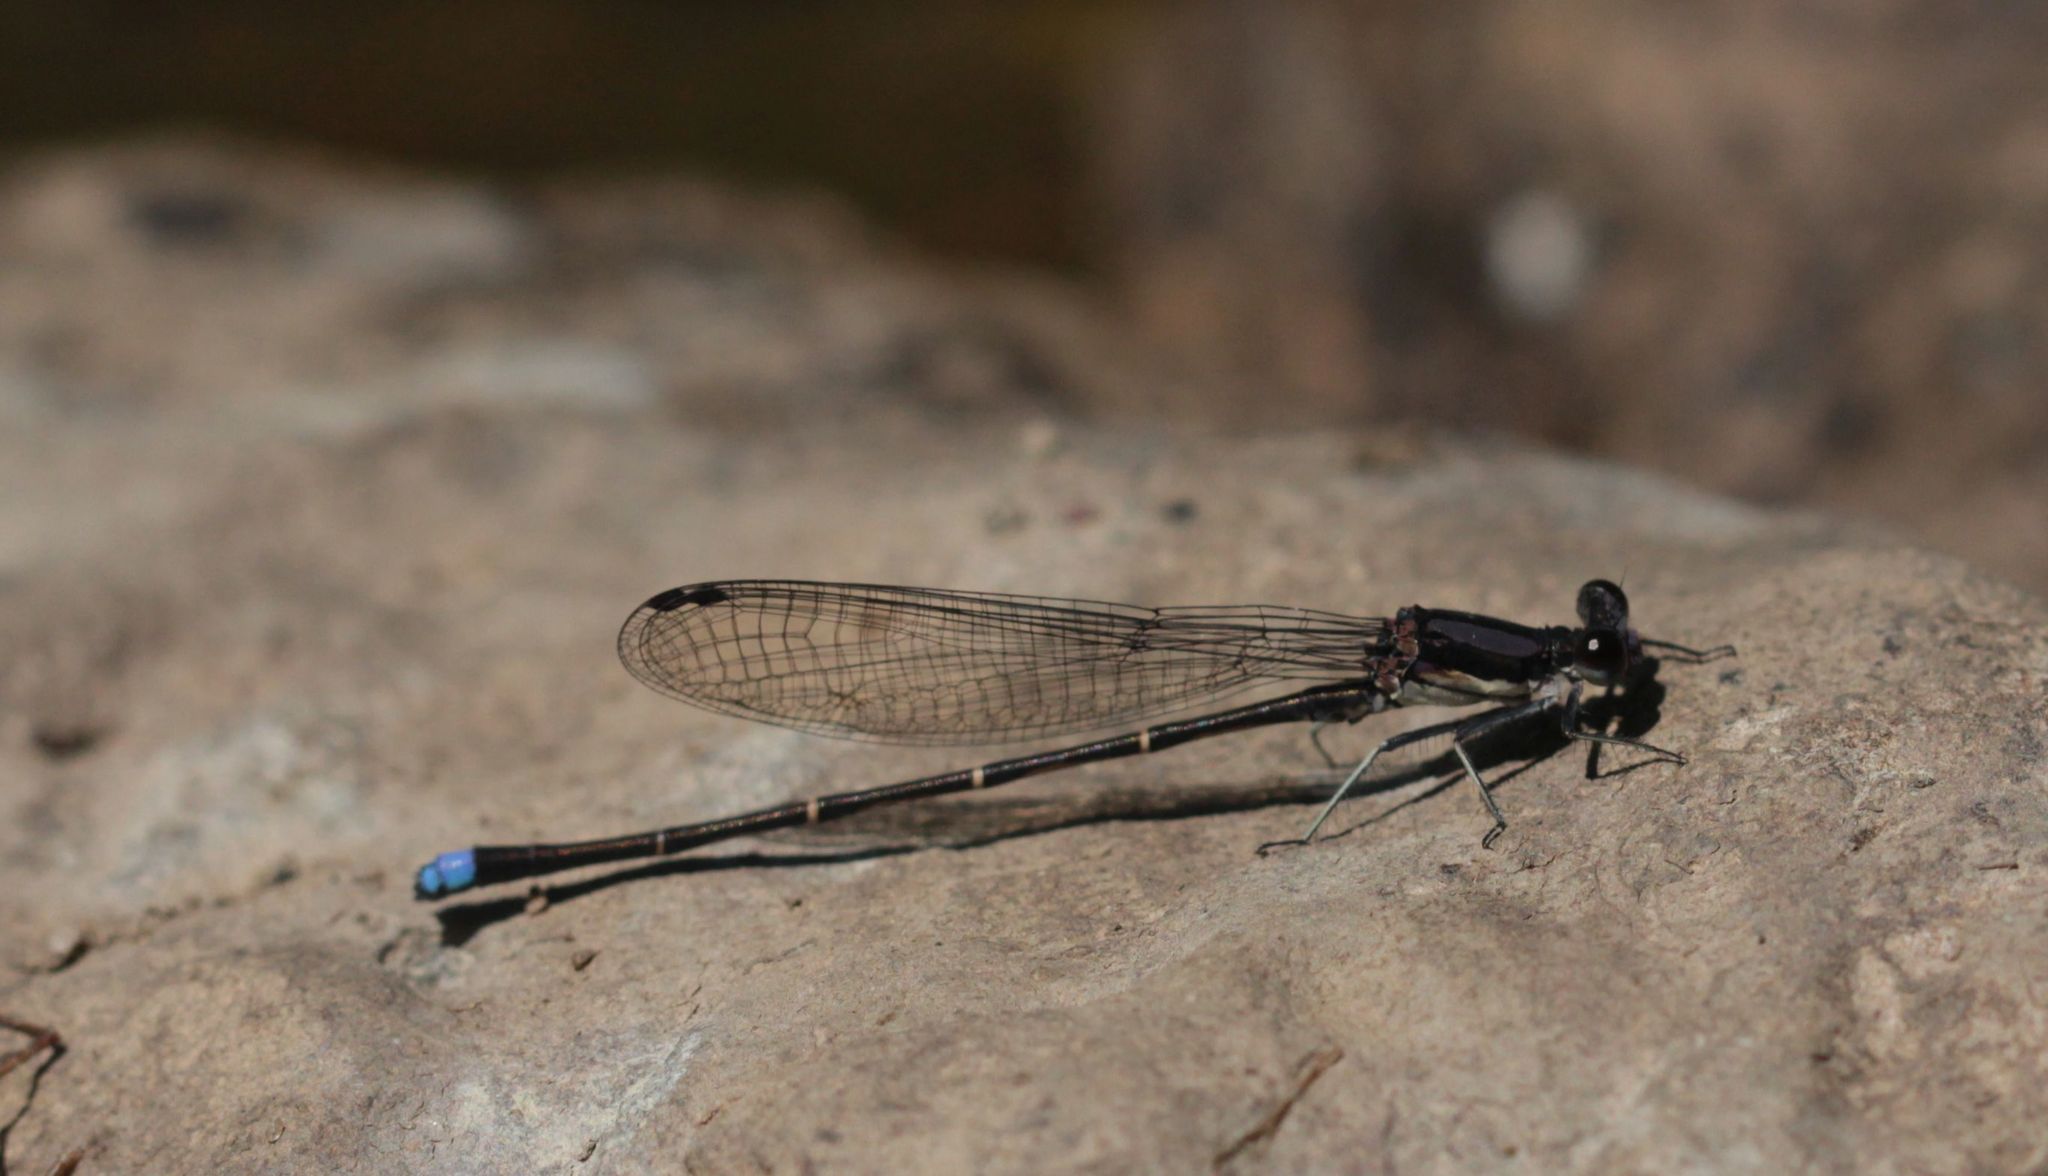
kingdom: Animalia
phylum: Arthropoda
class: Insecta
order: Odonata
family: Coenagrionidae
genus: Argia
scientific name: Argia tibialis
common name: Blue-tipped dancer
